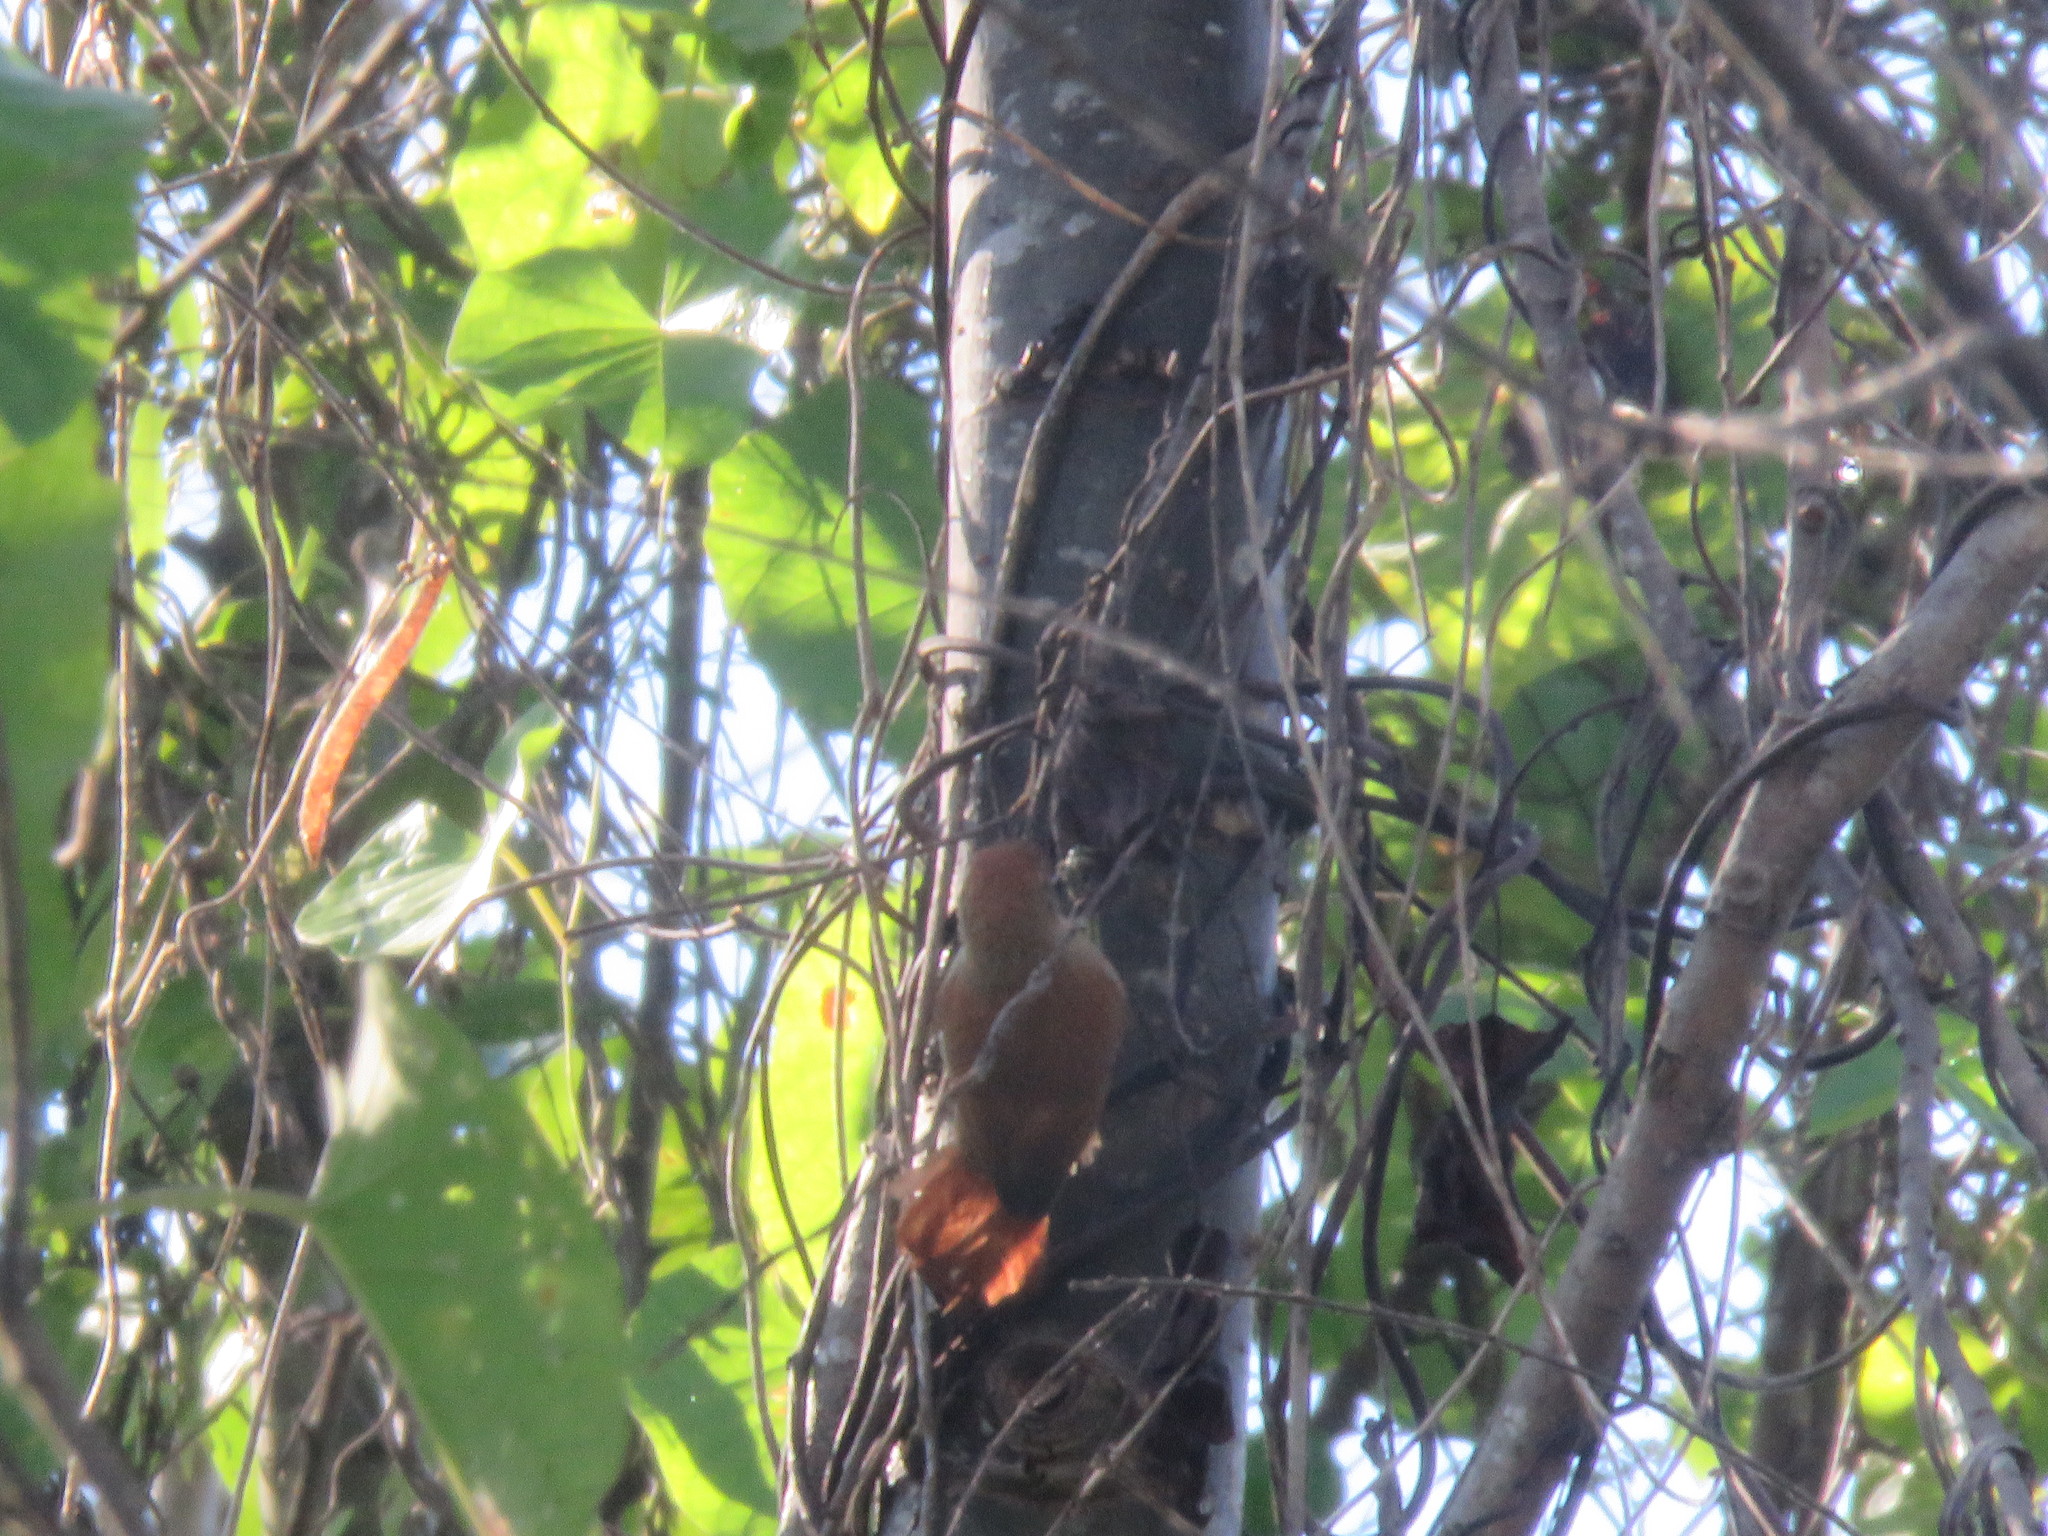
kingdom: Animalia
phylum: Chordata
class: Aves
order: Passeriformes
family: Furnariidae
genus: Cranioleuca
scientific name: Cranioleuca vulpecula
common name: Parker's spinetail
